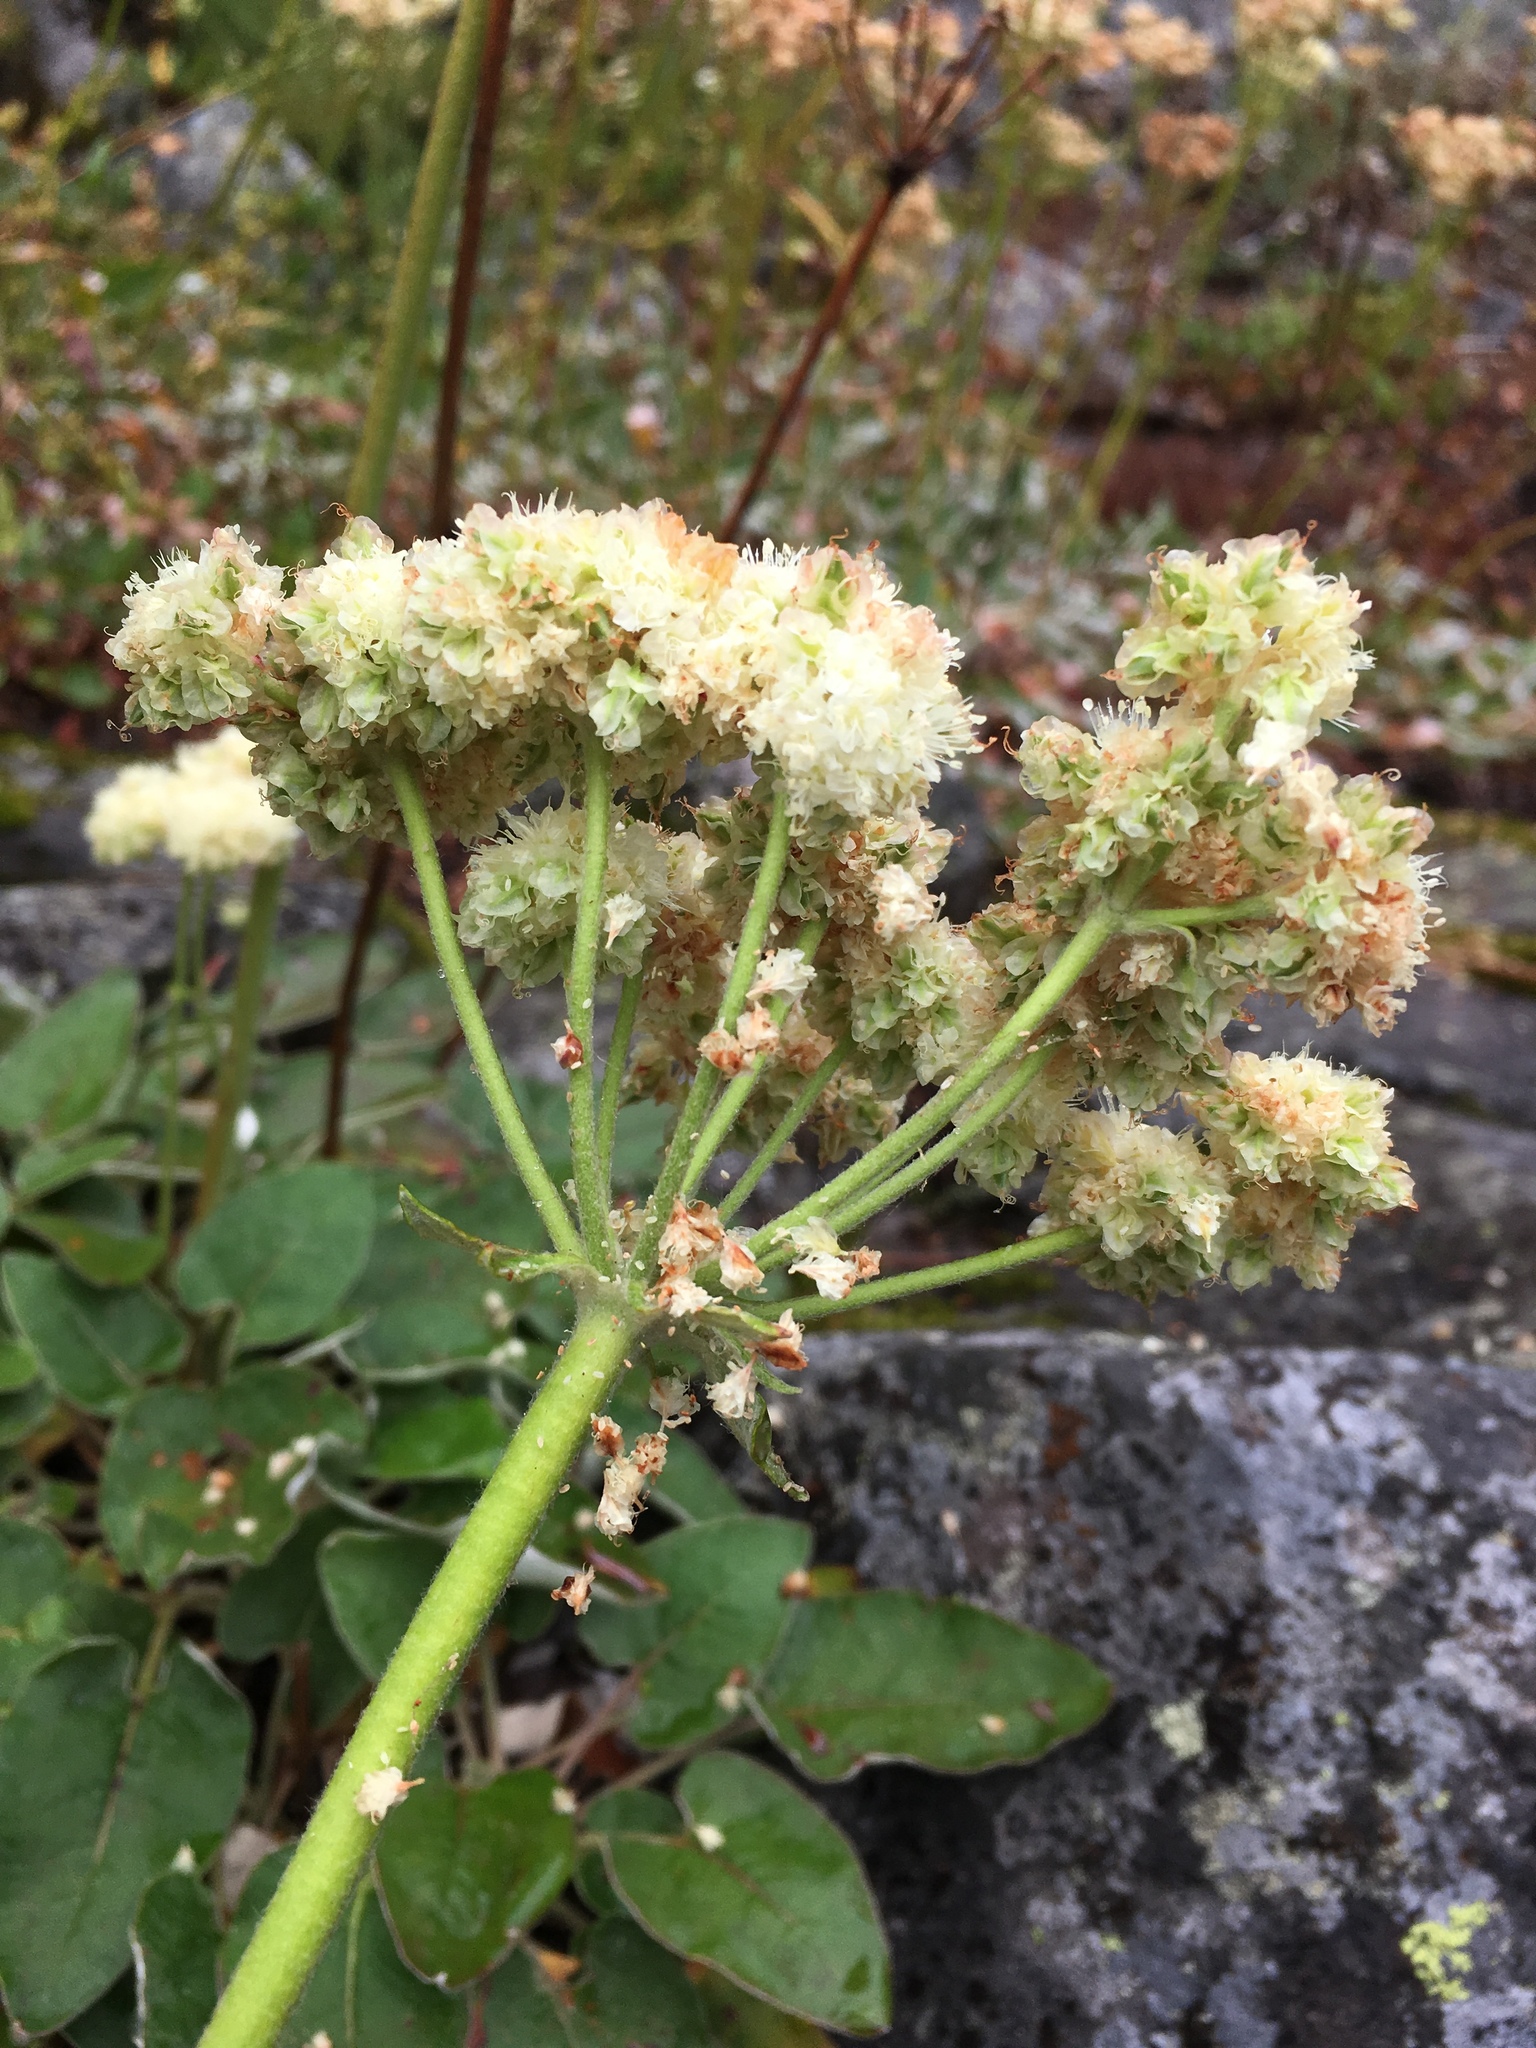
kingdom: Plantae
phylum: Tracheophyta
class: Magnoliopsida
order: Caryophyllales
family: Polygonaceae
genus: Eriogonum
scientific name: Eriogonum compositum
